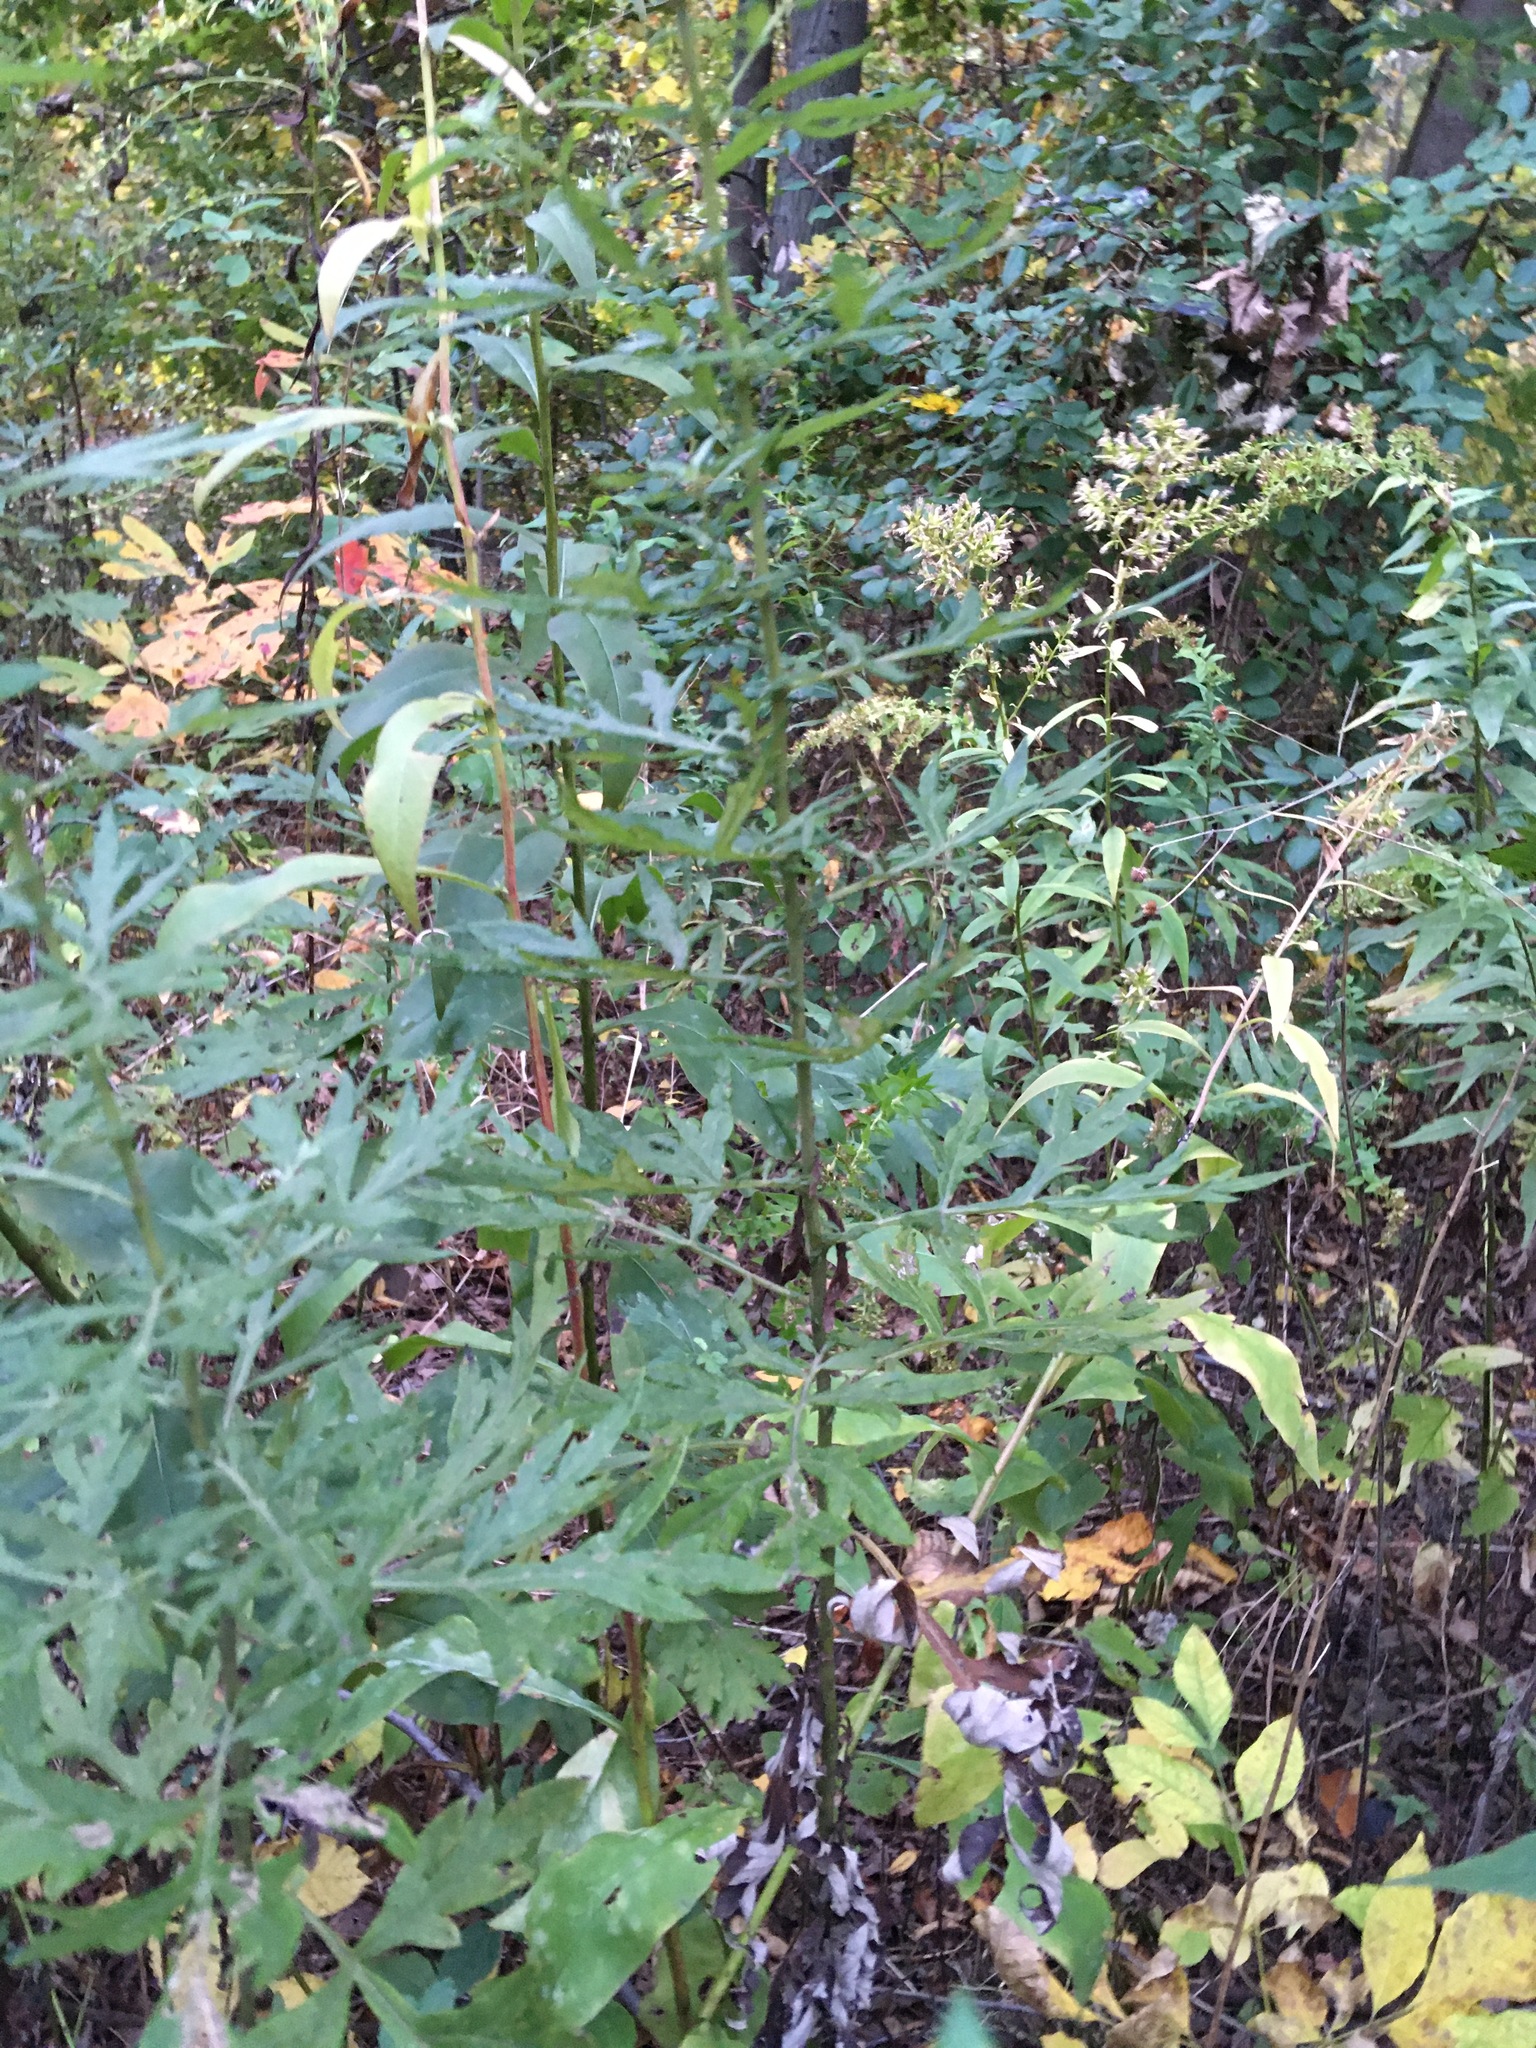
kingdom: Plantae
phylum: Tracheophyta
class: Magnoliopsida
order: Asterales
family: Asteraceae
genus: Artemisia
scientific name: Artemisia vulgaris
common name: Mugwort
